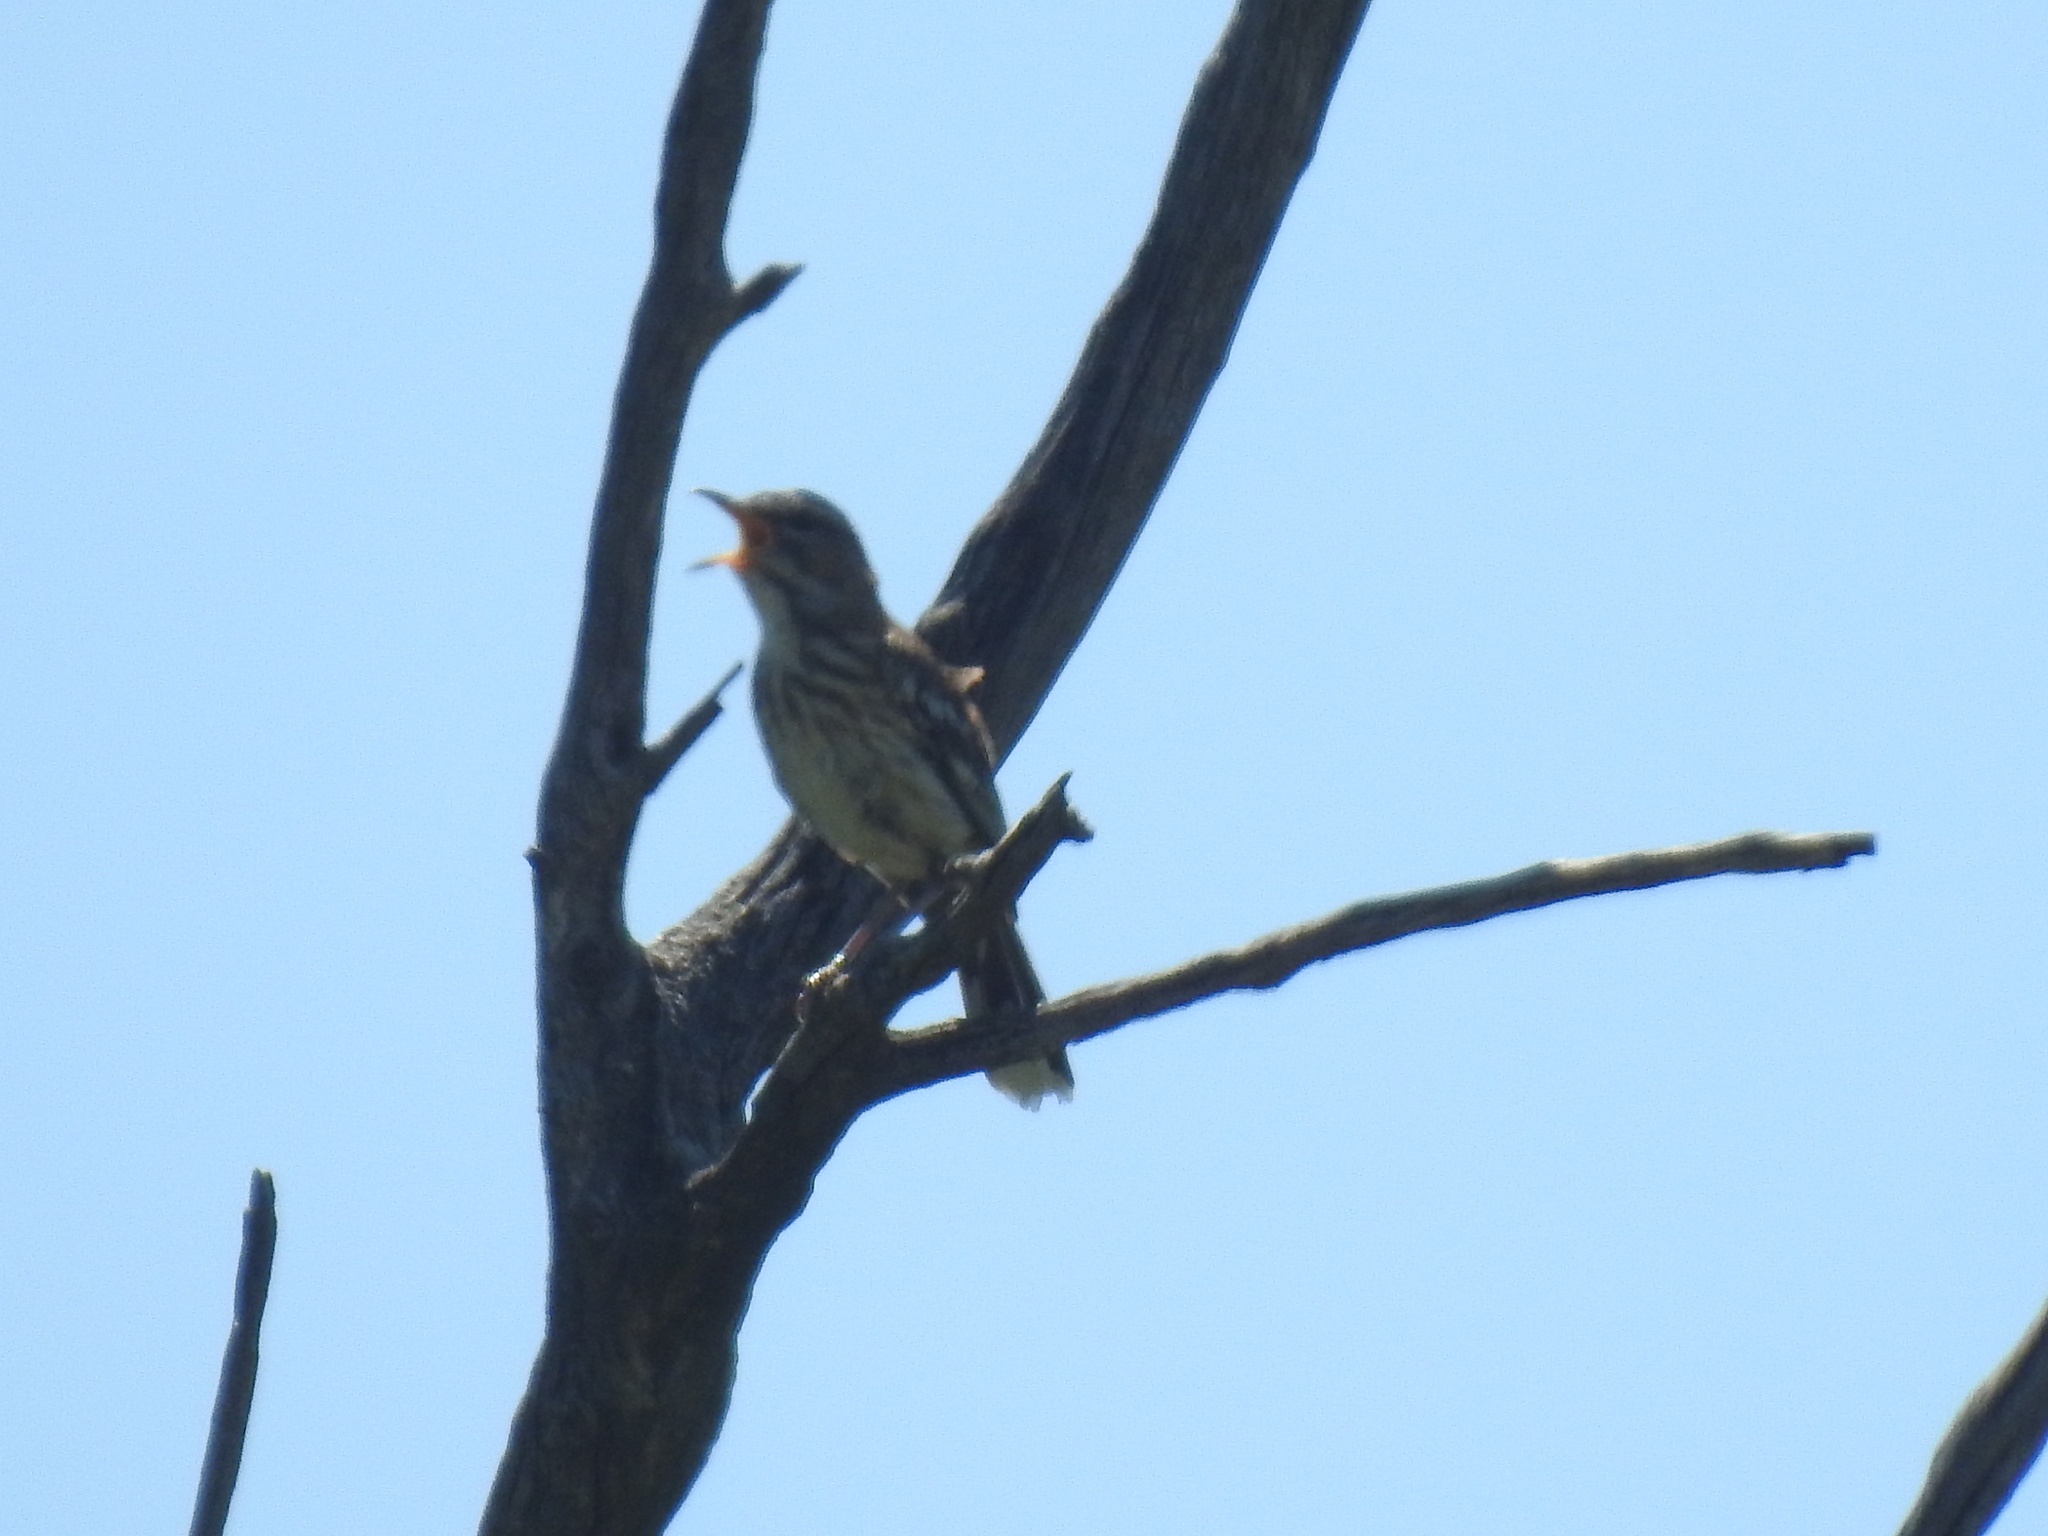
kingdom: Animalia
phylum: Chordata
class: Aves
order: Passeriformes
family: Muscicapidae
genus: Erythropygia
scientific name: Erythropygia leucophrys
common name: White-browed scrub robin
